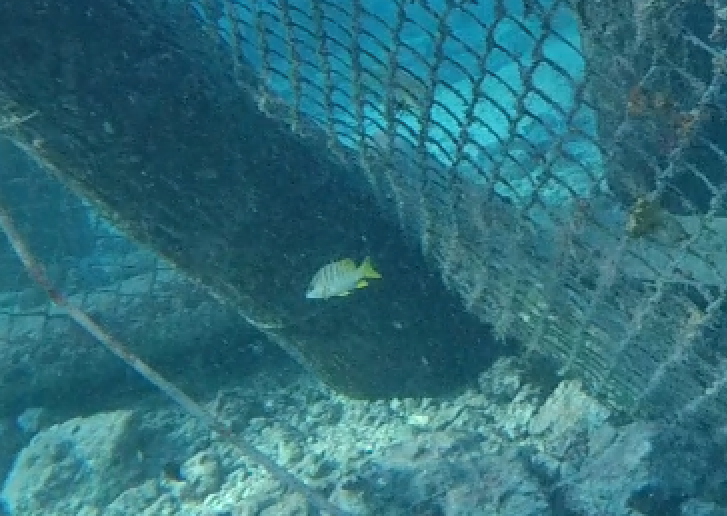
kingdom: Animalia
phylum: Chordata
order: Perciformes
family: Lutjanidae
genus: Lutjanus
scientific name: Lutjanus apodus
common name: Schoolmaster
